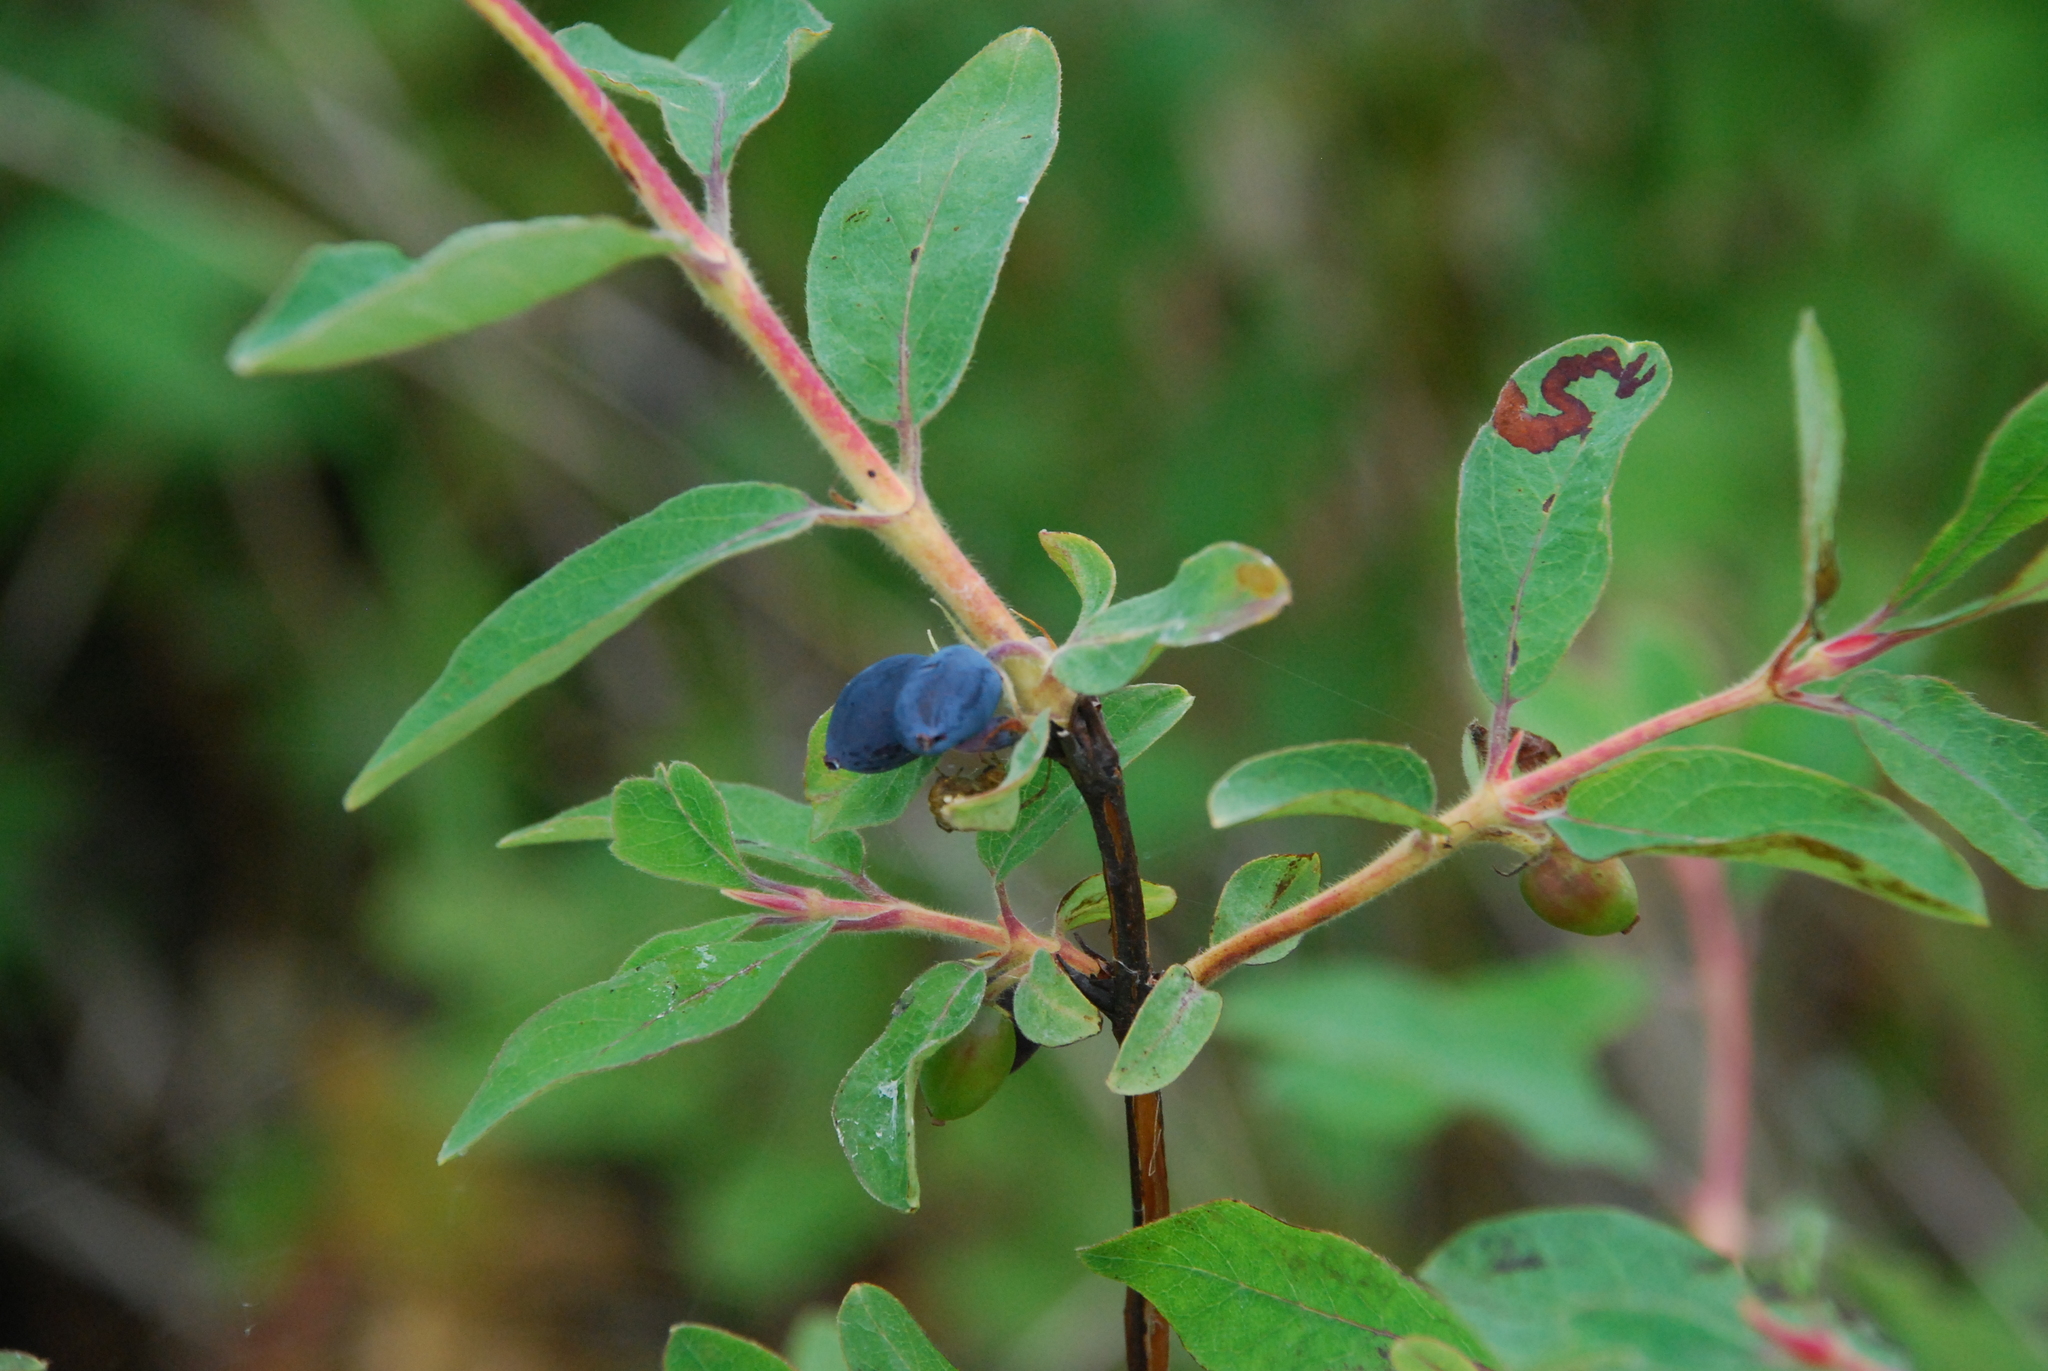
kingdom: Plantae
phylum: Tracheophyta
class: Magnoliopsida
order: Dipsacales
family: Caprifoliaceae
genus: Lonicera
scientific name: Lonicera caerulea
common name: Blue honeysuckle
